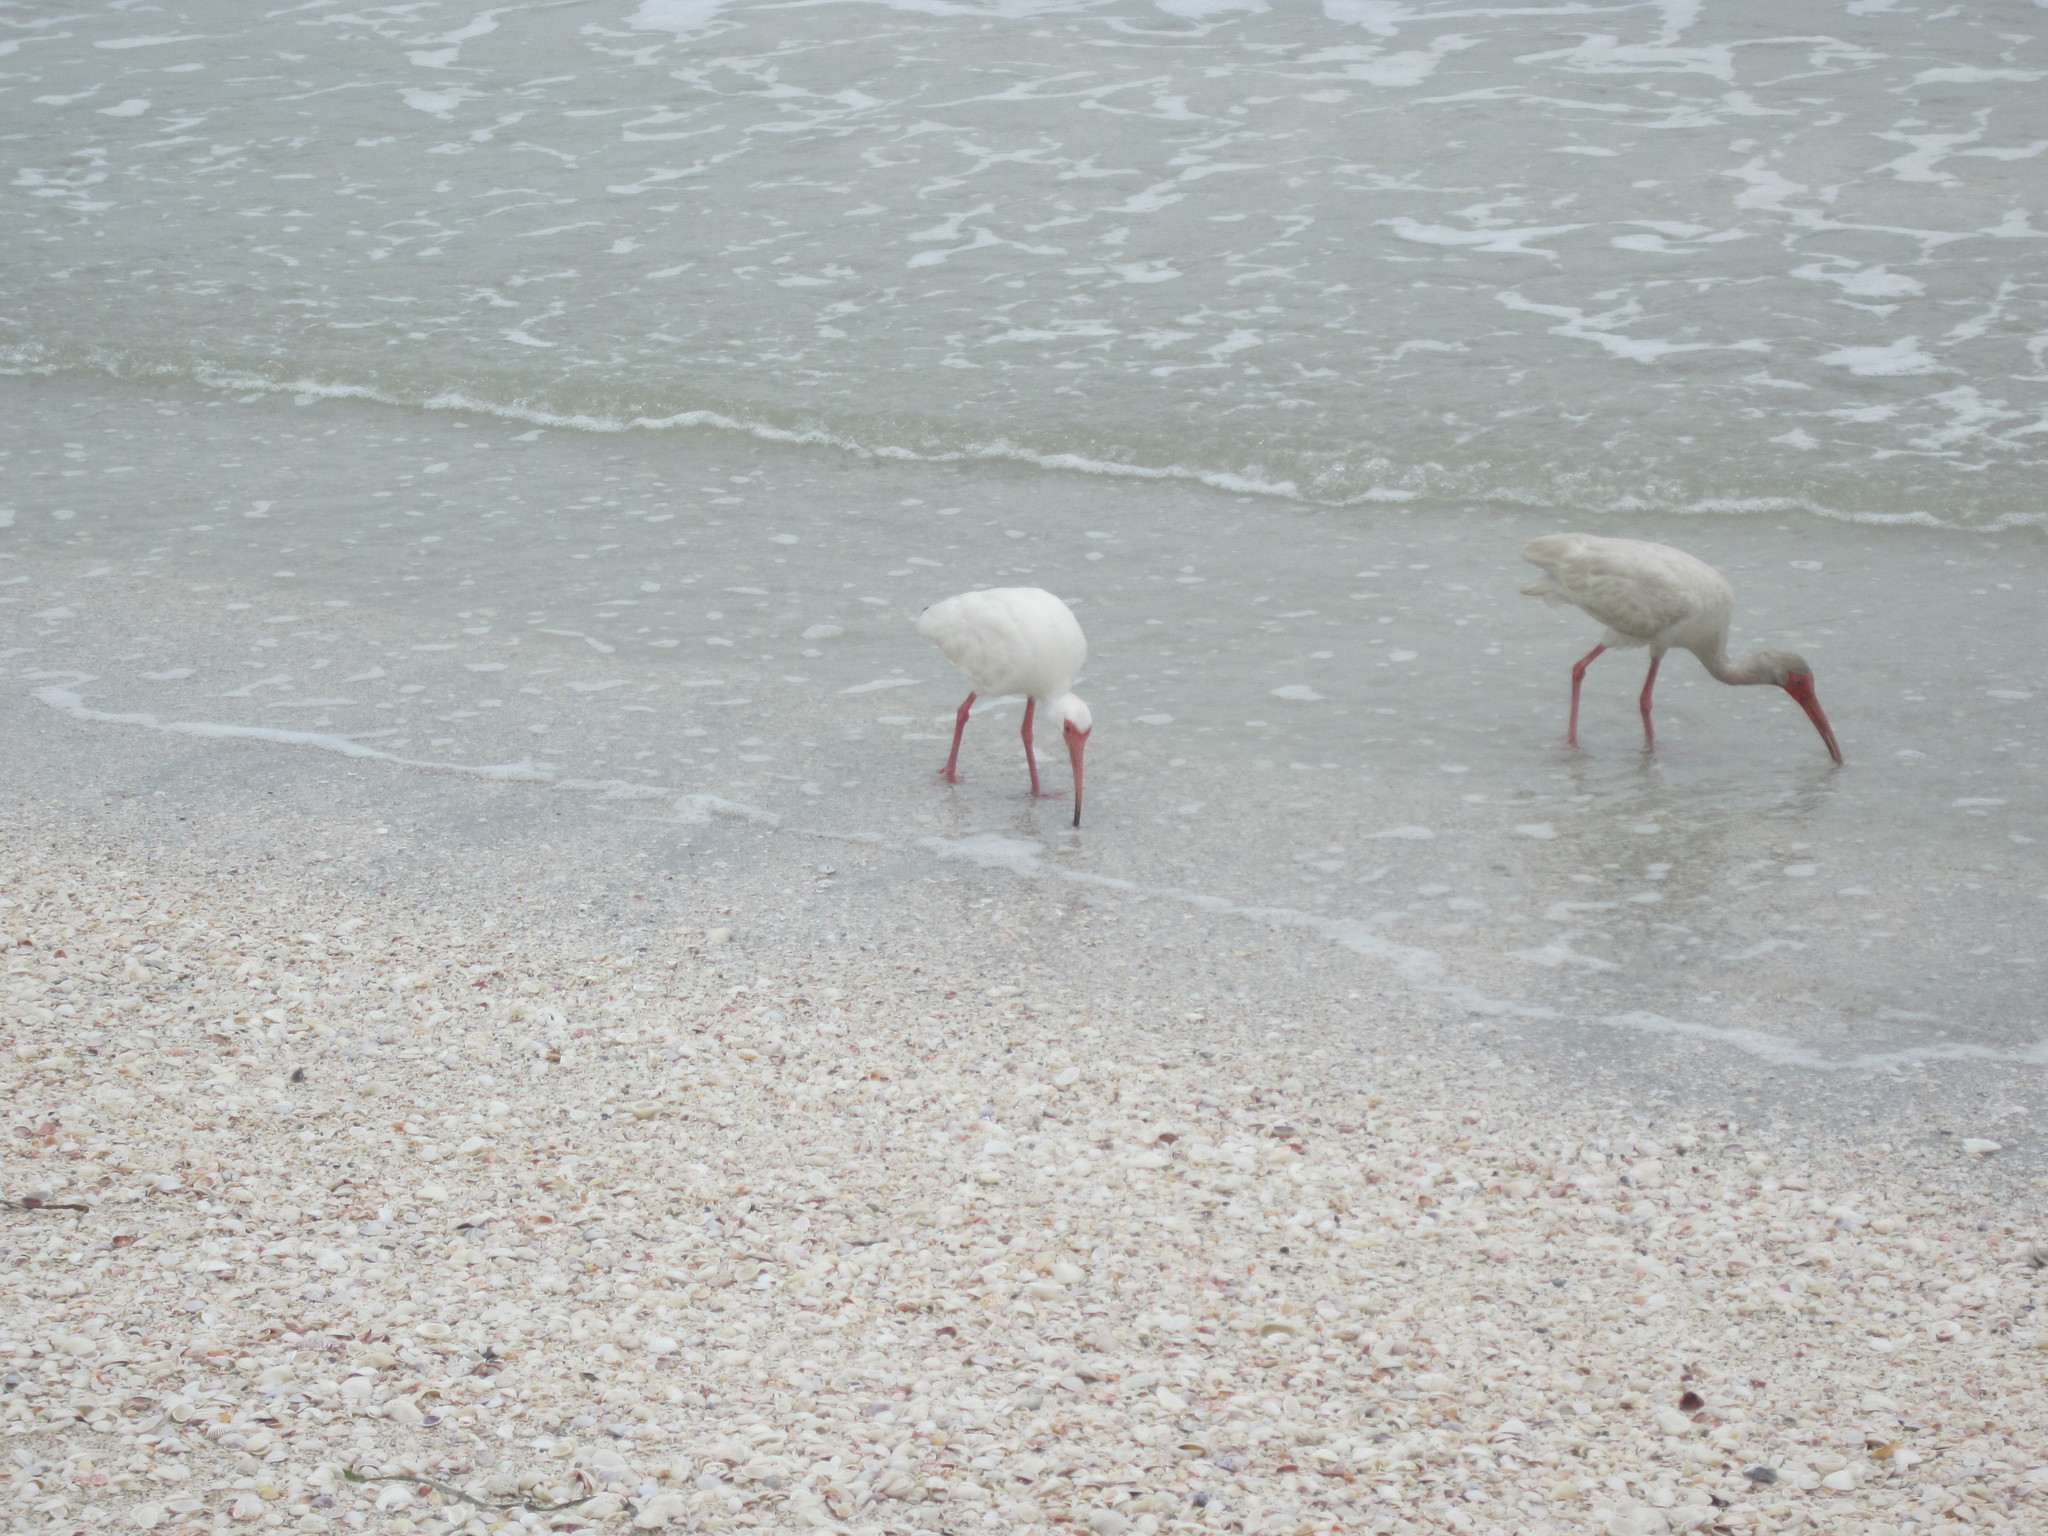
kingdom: Animalia
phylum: Chordata
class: Aves
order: Pelecaniformes
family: Threskiornithidae
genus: Eudocimus
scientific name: Eudocimus albus
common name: White ibis
